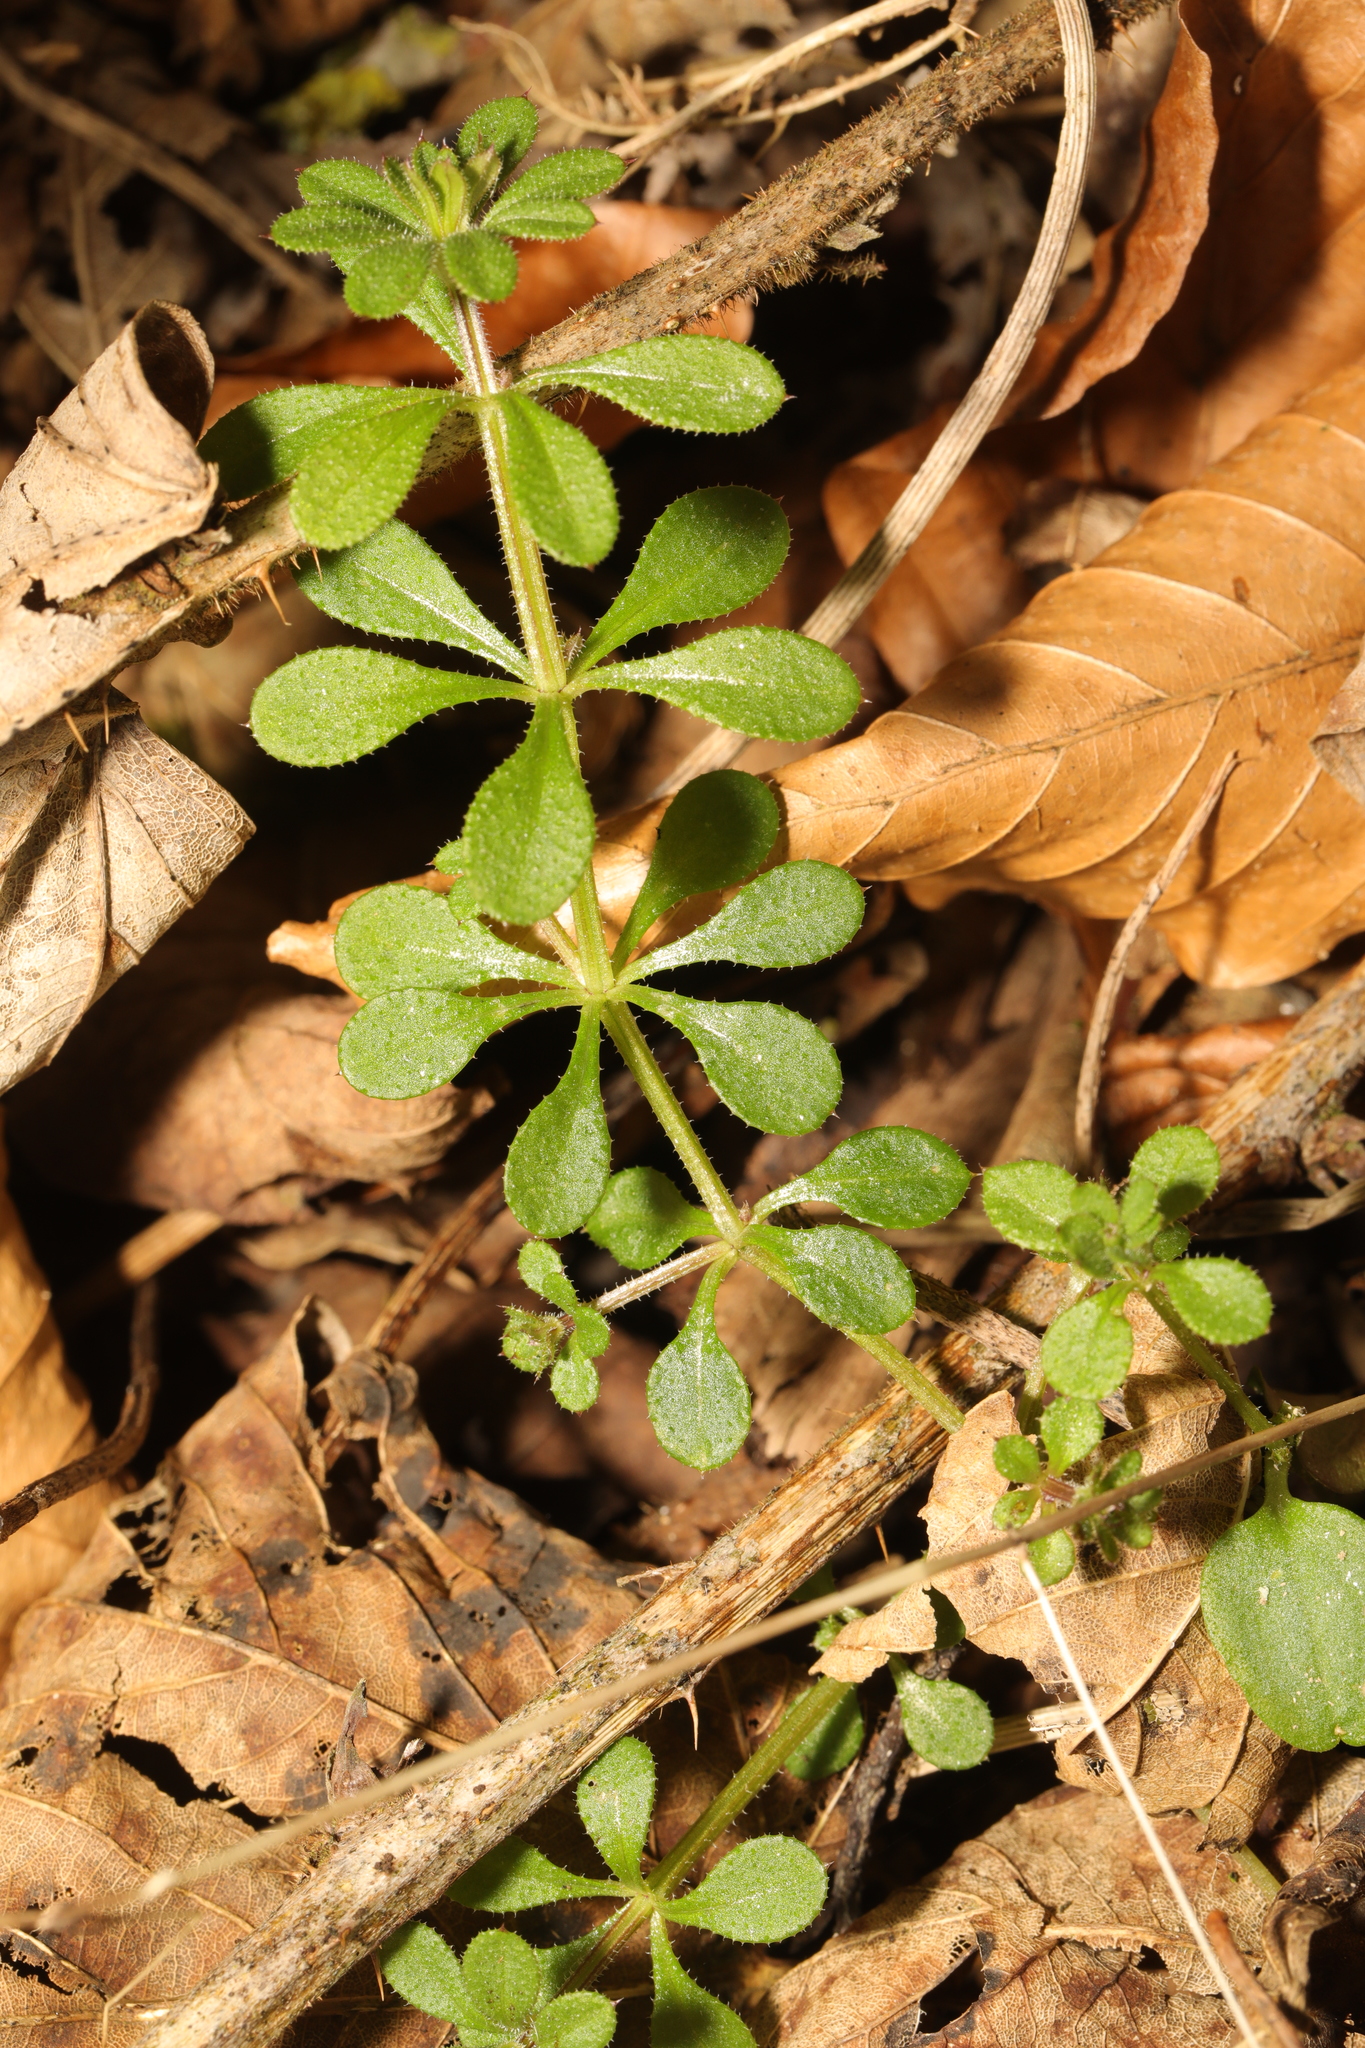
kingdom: Plantae
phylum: Tracheophyta
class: Magnoliopsida
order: Gentianales
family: Rubiaceae
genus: Galium
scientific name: Galium aparine
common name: Cleavers
